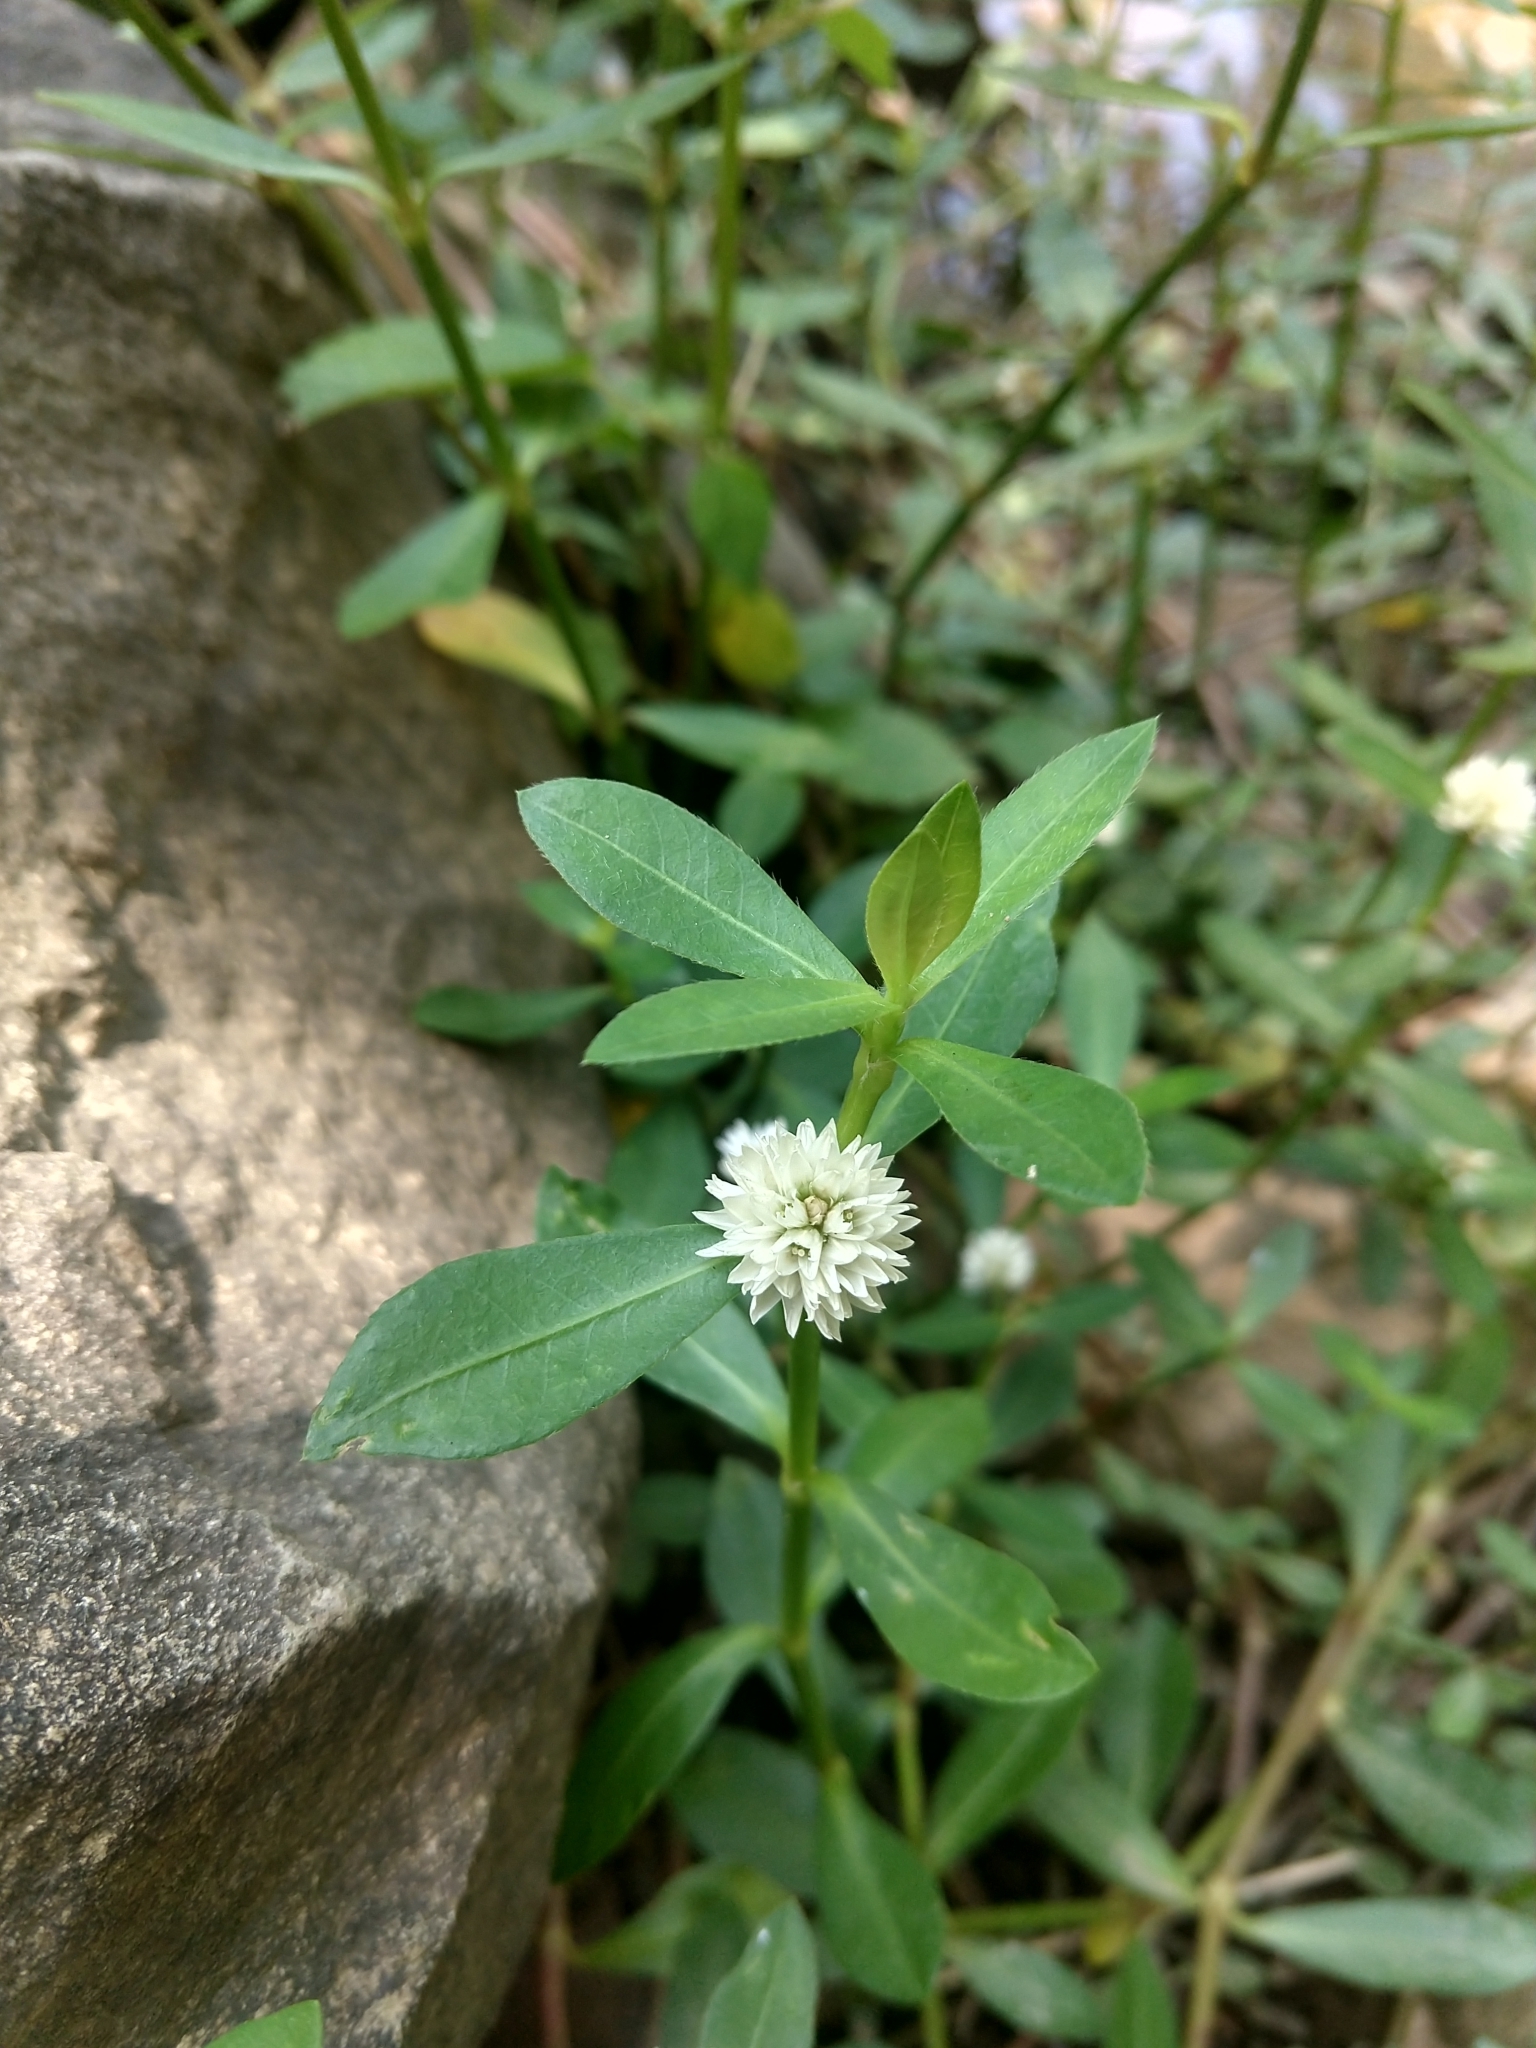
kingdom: Plantae
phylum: Tracheophyta
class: Magnoliopsida
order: Caryophyllales
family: Amaranthaceae
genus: Alternanthera
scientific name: Alternanthera philoxeroides
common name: Alligatorweed
